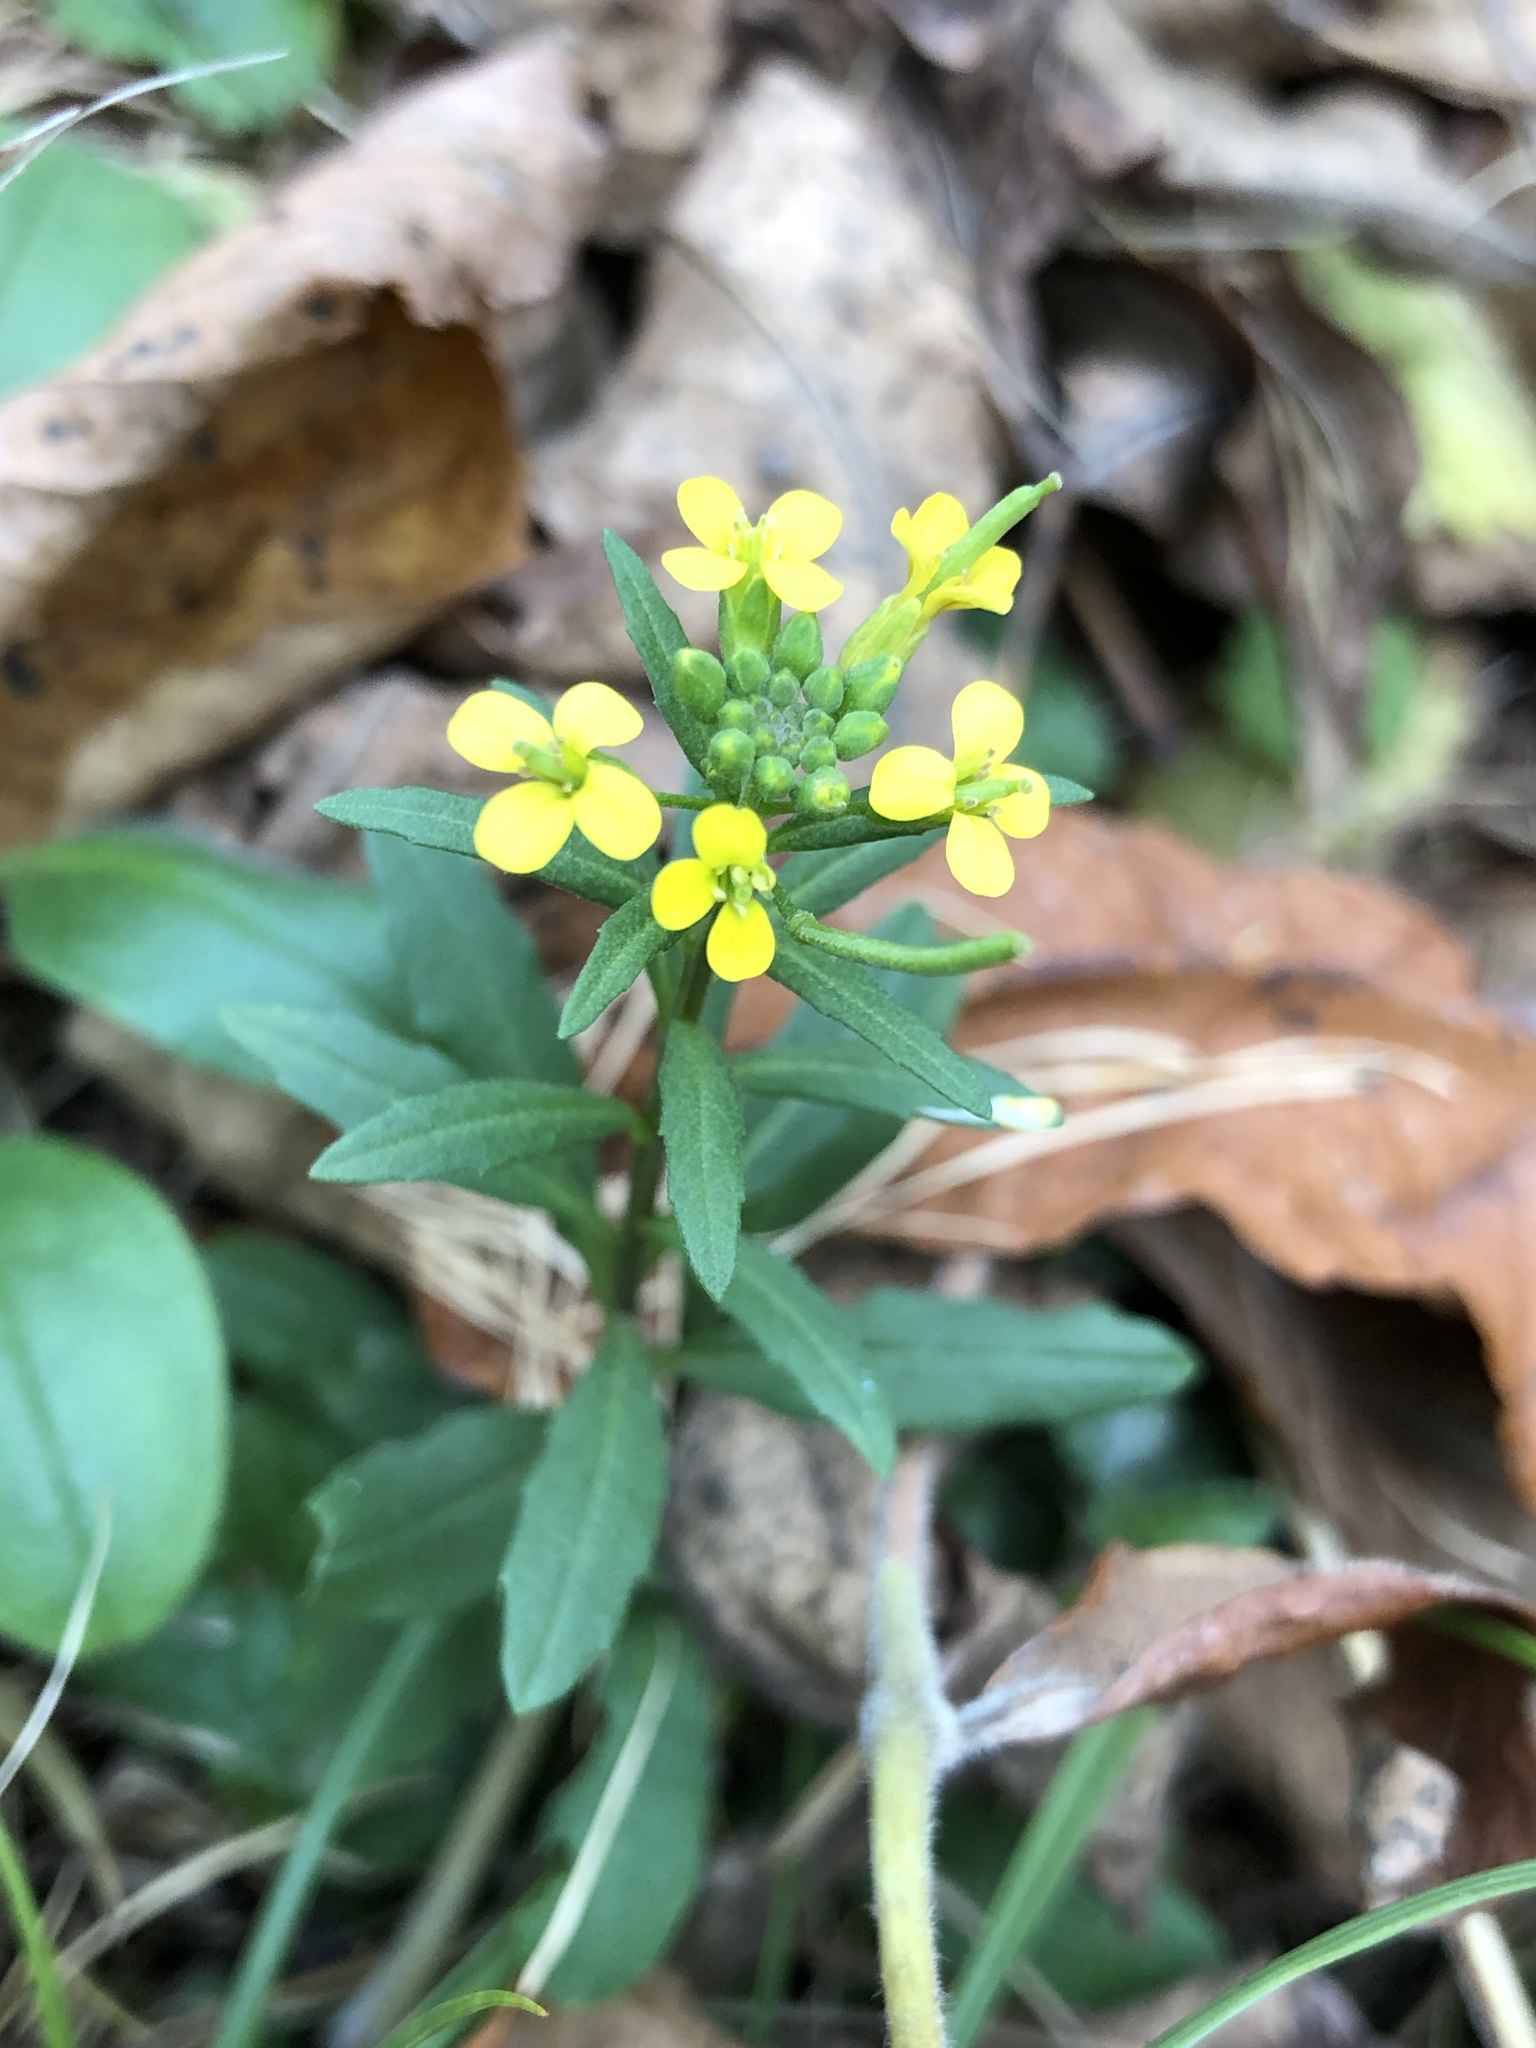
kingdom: Plantae
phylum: Tracheophyta
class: Magnoliopsida
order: Brassicales
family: Brassicaceae
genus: Erysimum
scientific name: Erysimum cheiranthoides
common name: Treacle mustard
